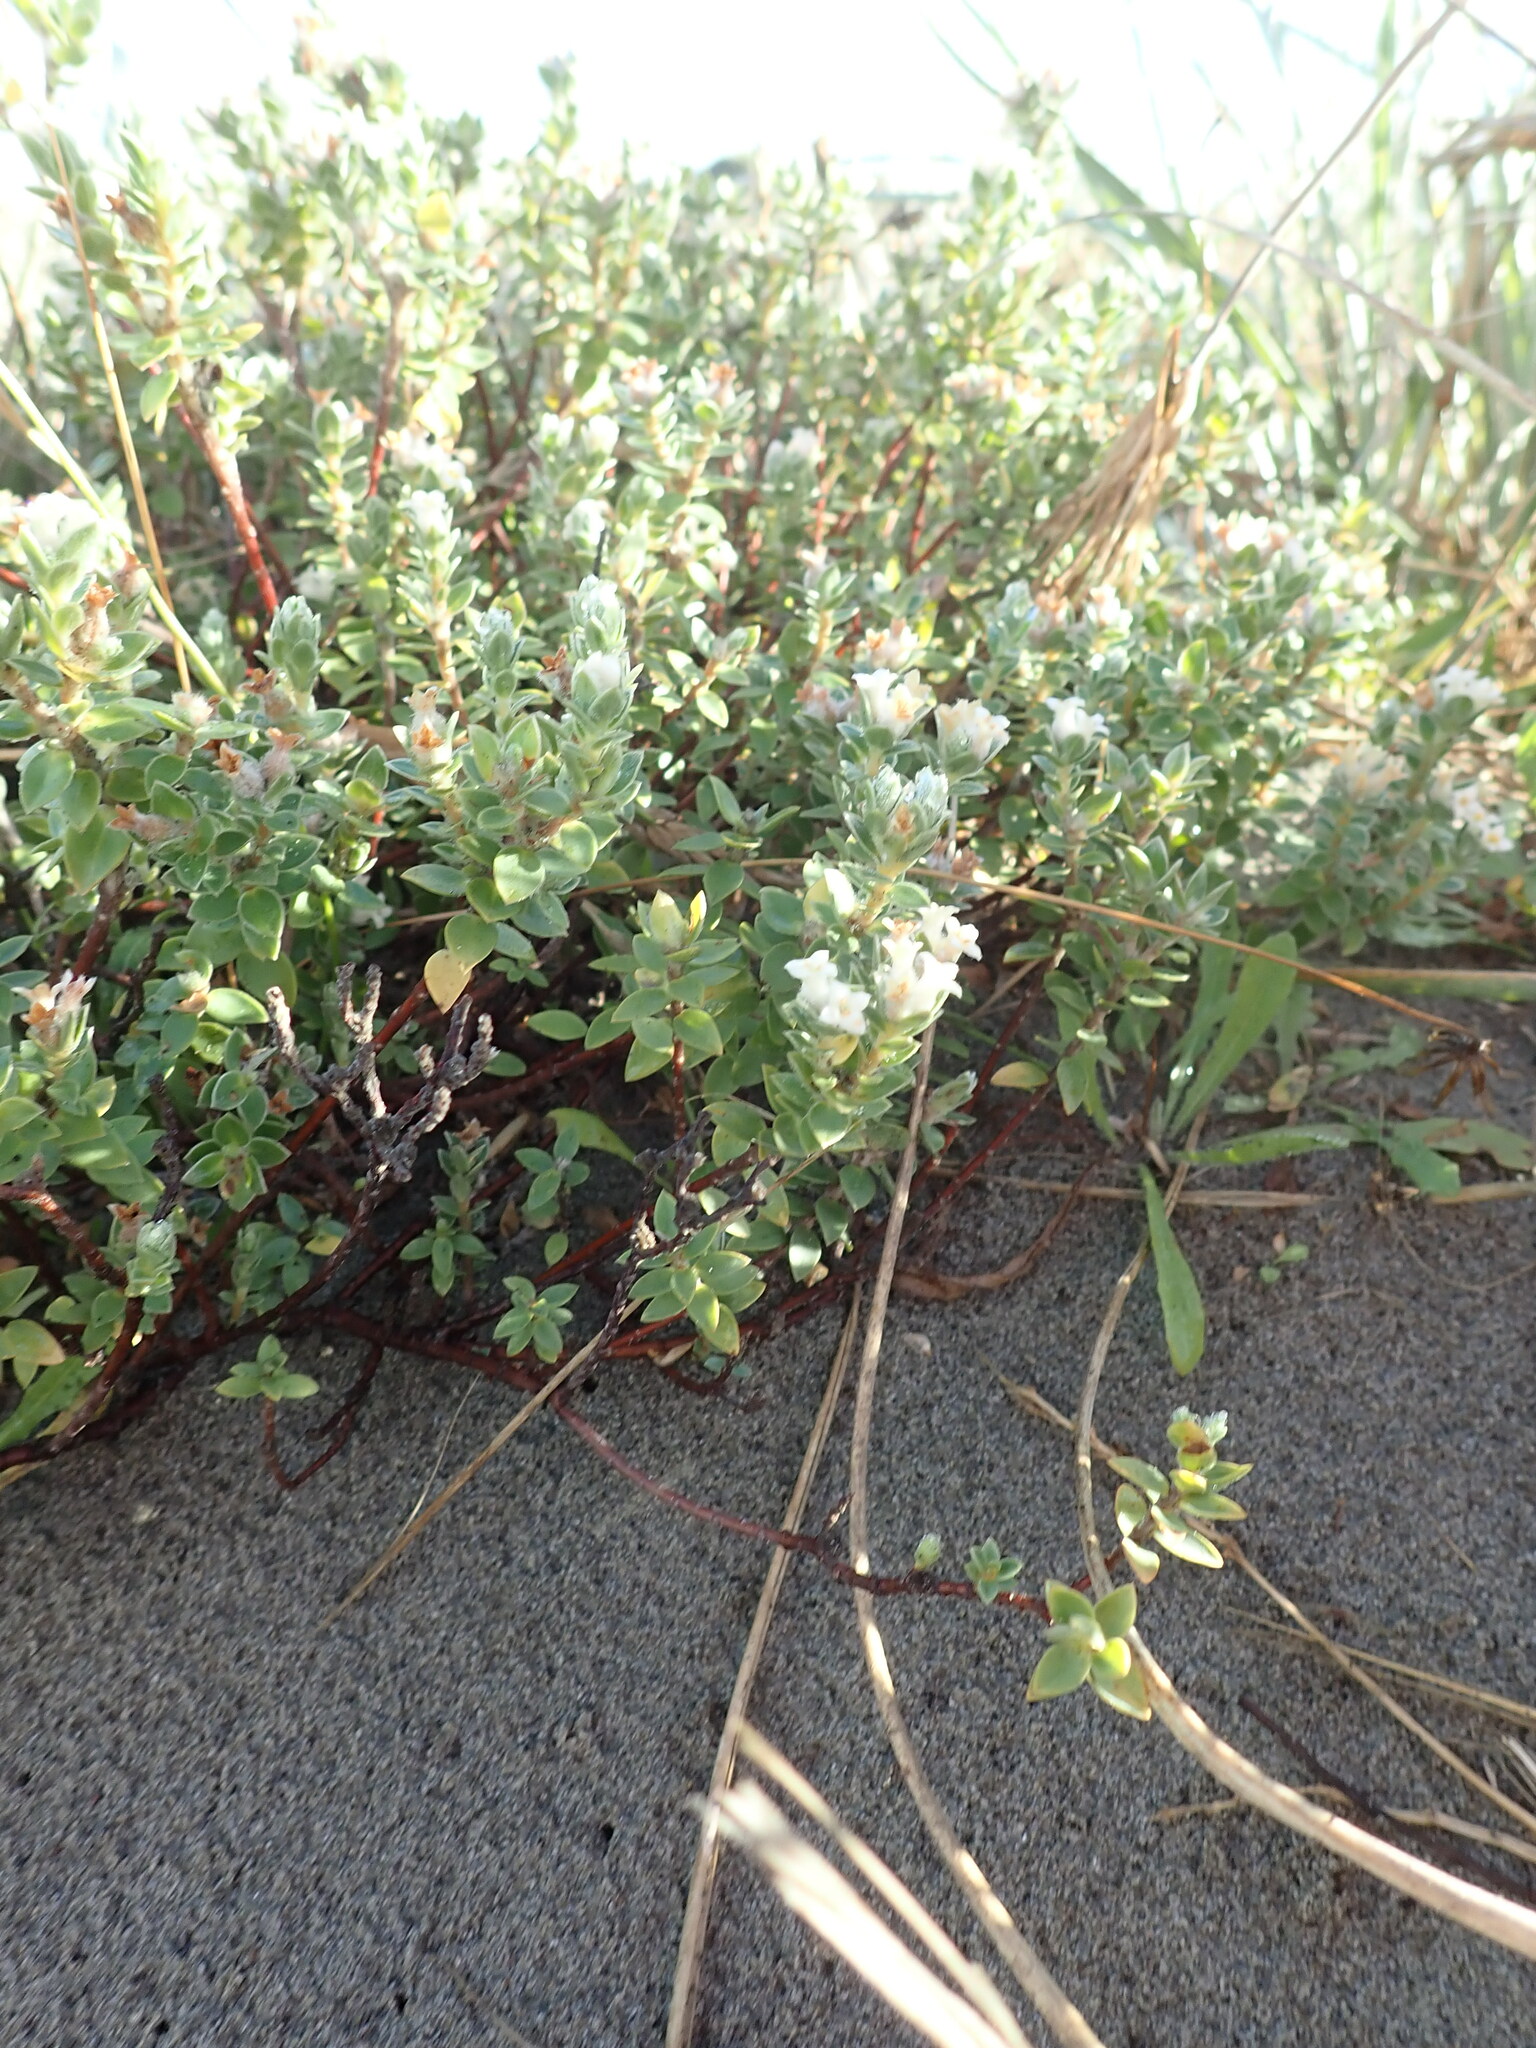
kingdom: Plantae
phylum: Tracheophyta
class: Magnoliopsida
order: Malvales
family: Thymelaeaceae
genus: Pimelea
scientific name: Pimelea villosa
